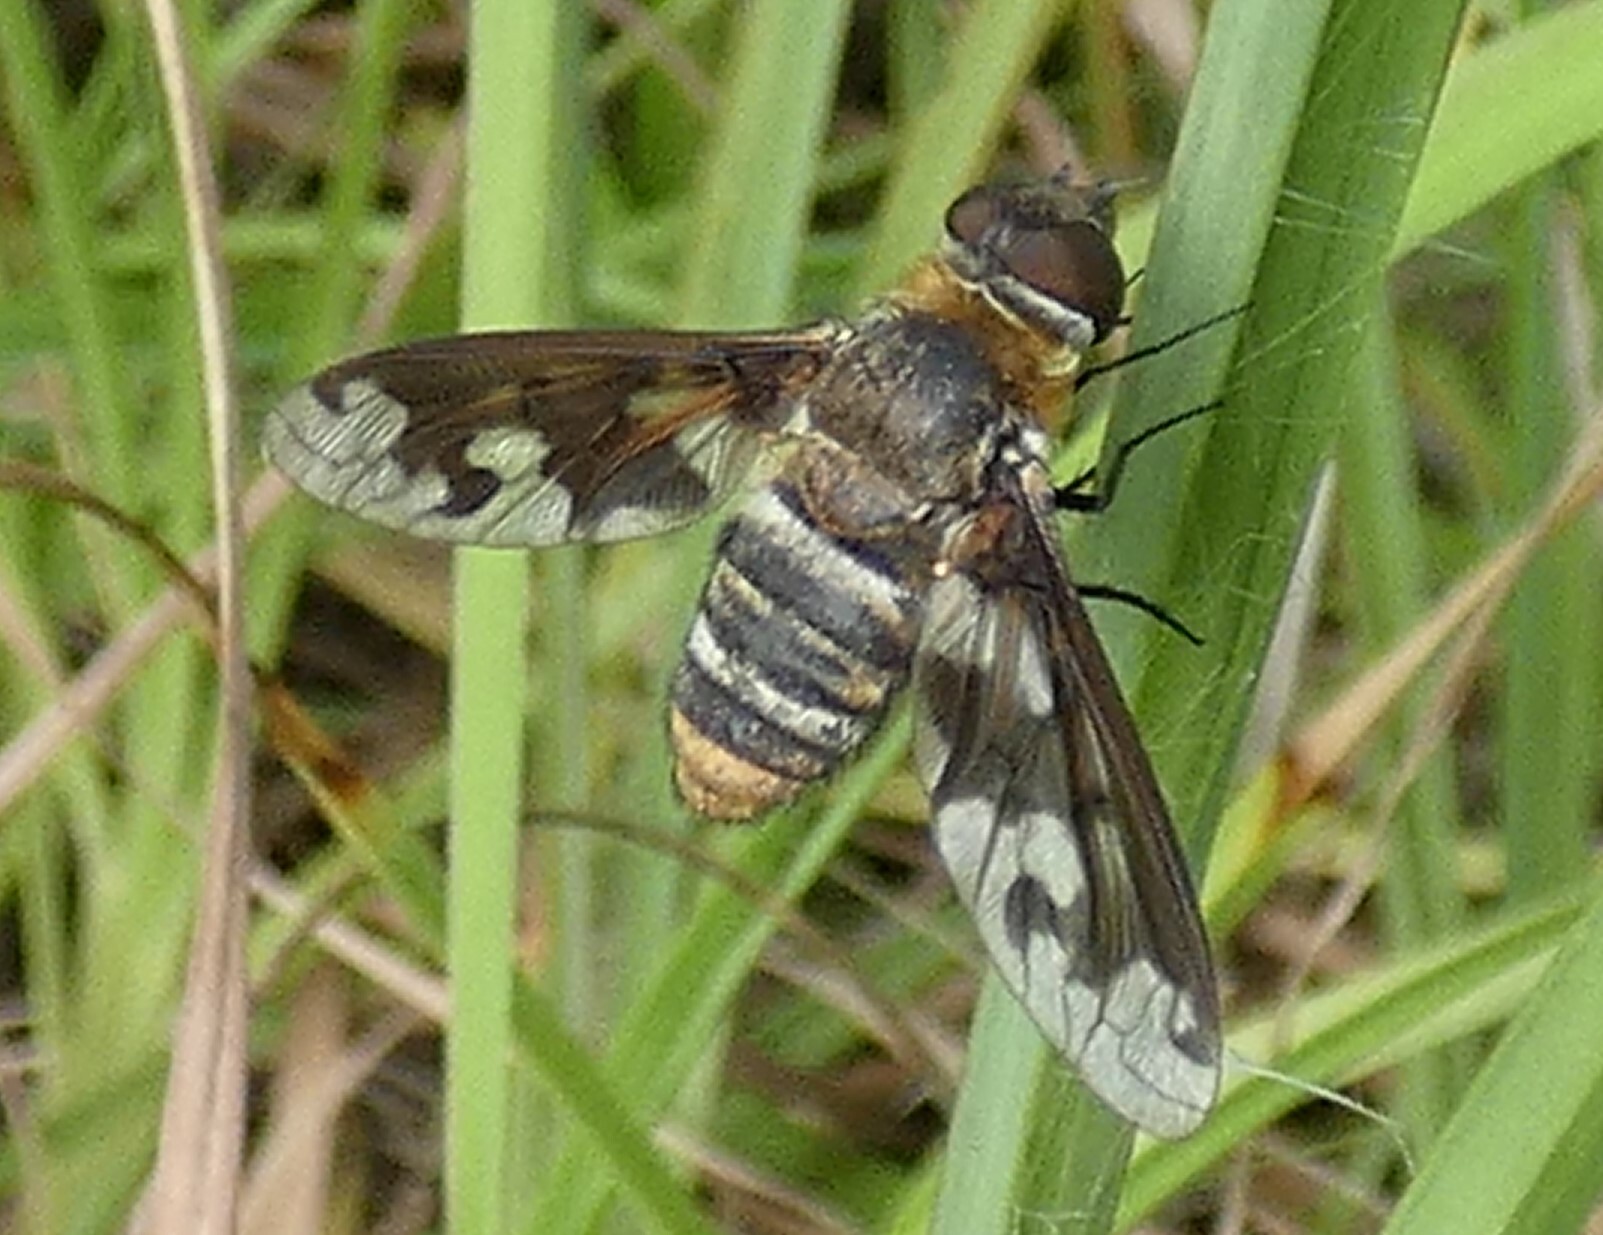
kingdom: Animalia
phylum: Arthropoda
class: Insecta
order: Diptera
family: Bombyliidae
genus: Exoprosopa
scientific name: Exoprosopa fascipennis
